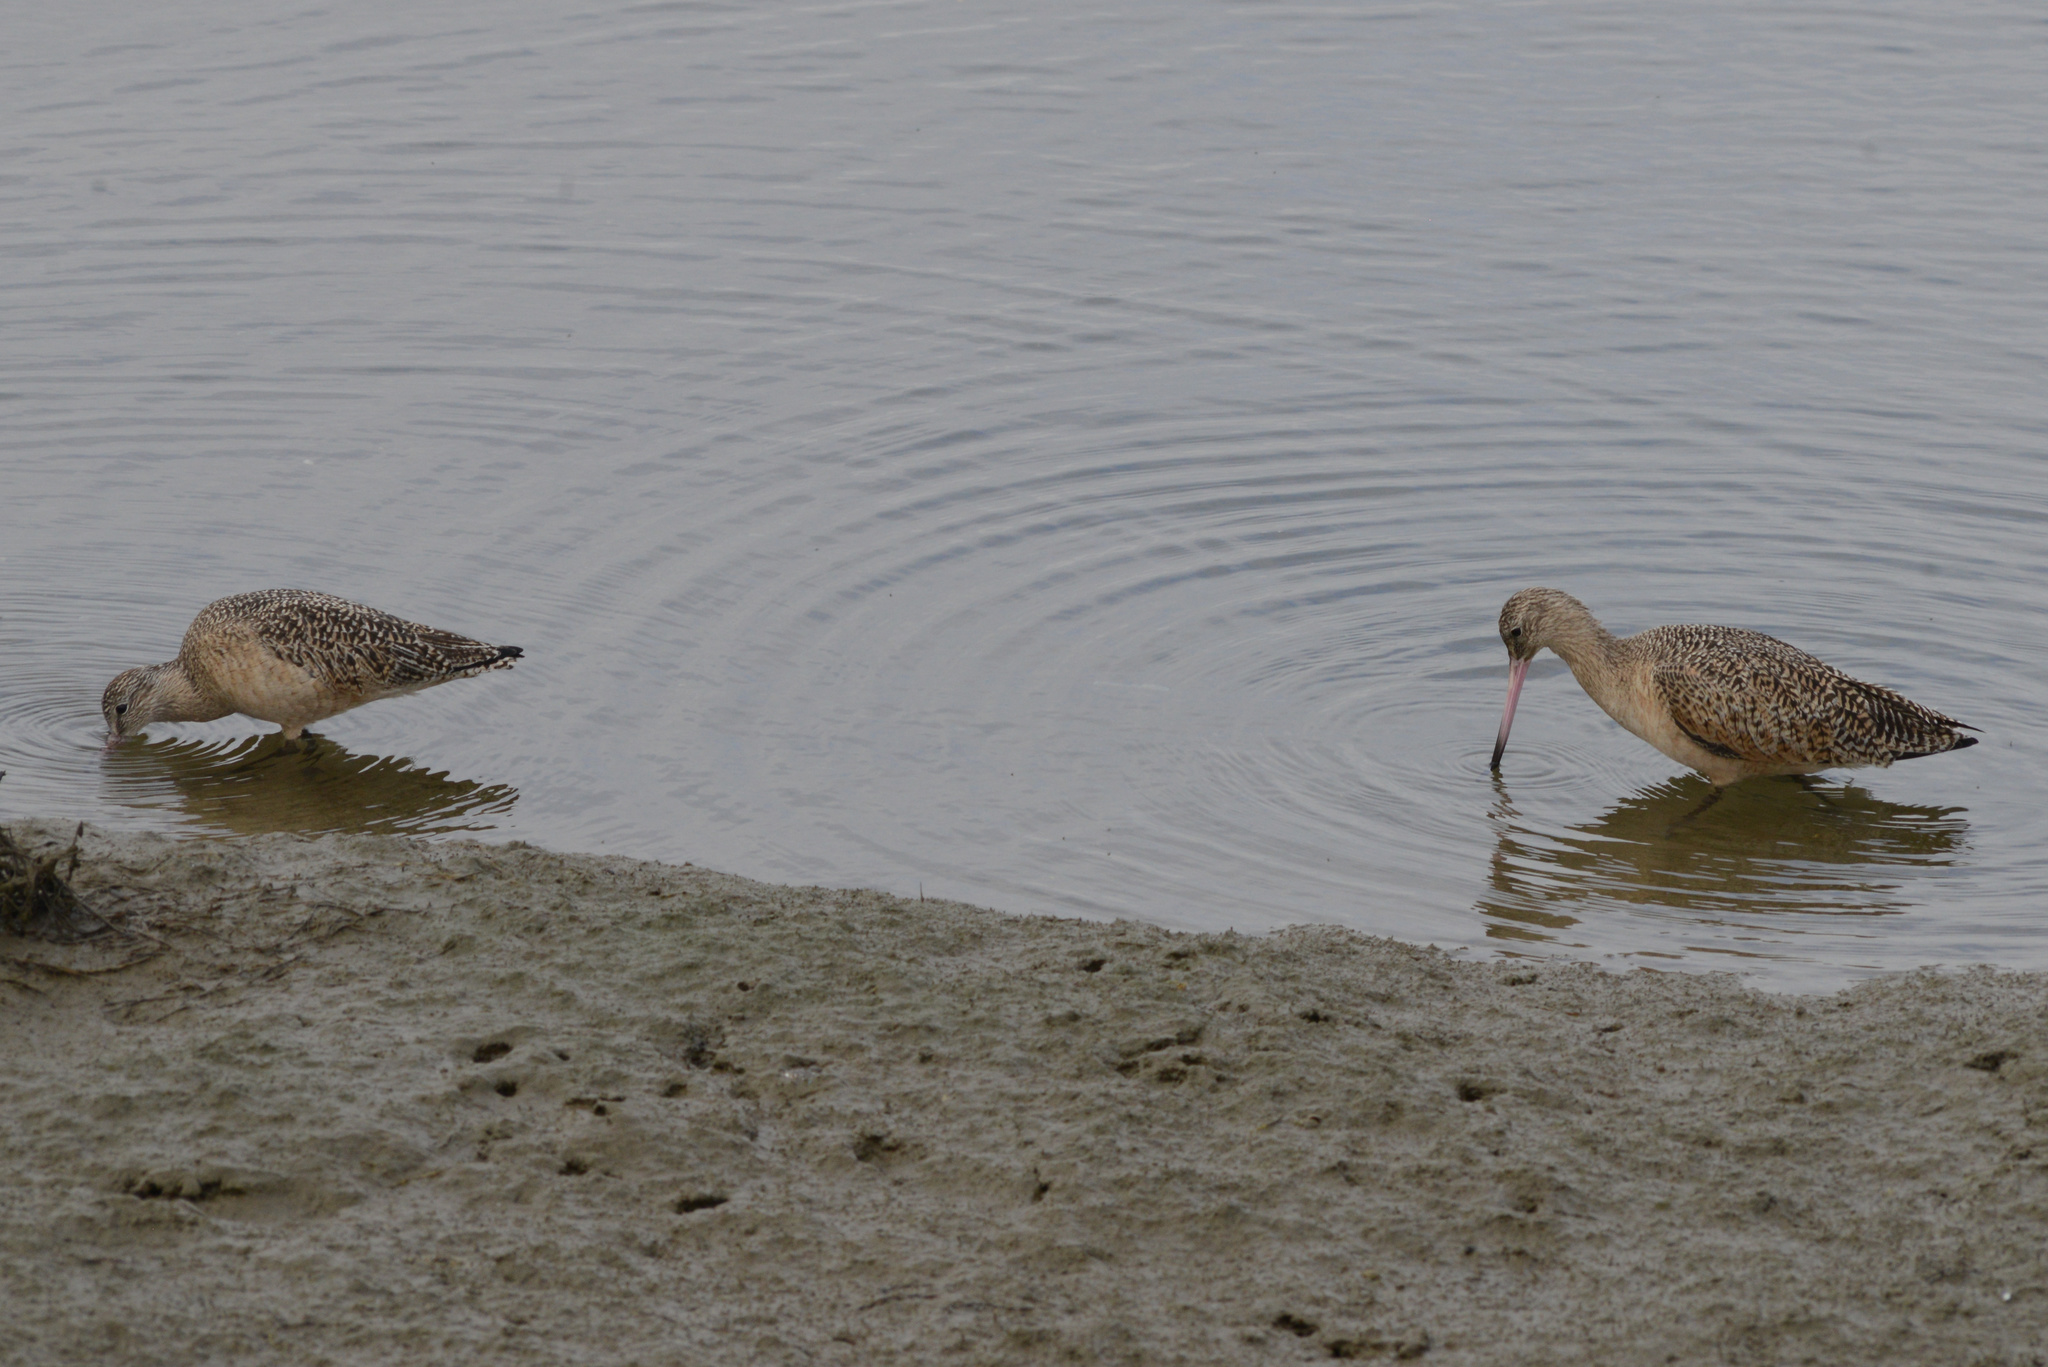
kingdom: Animalia
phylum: Chordata
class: Aves
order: Charadriiformes
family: Scolopacidae
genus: Limosa
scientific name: Limosa fedoa
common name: Marbled godwit
